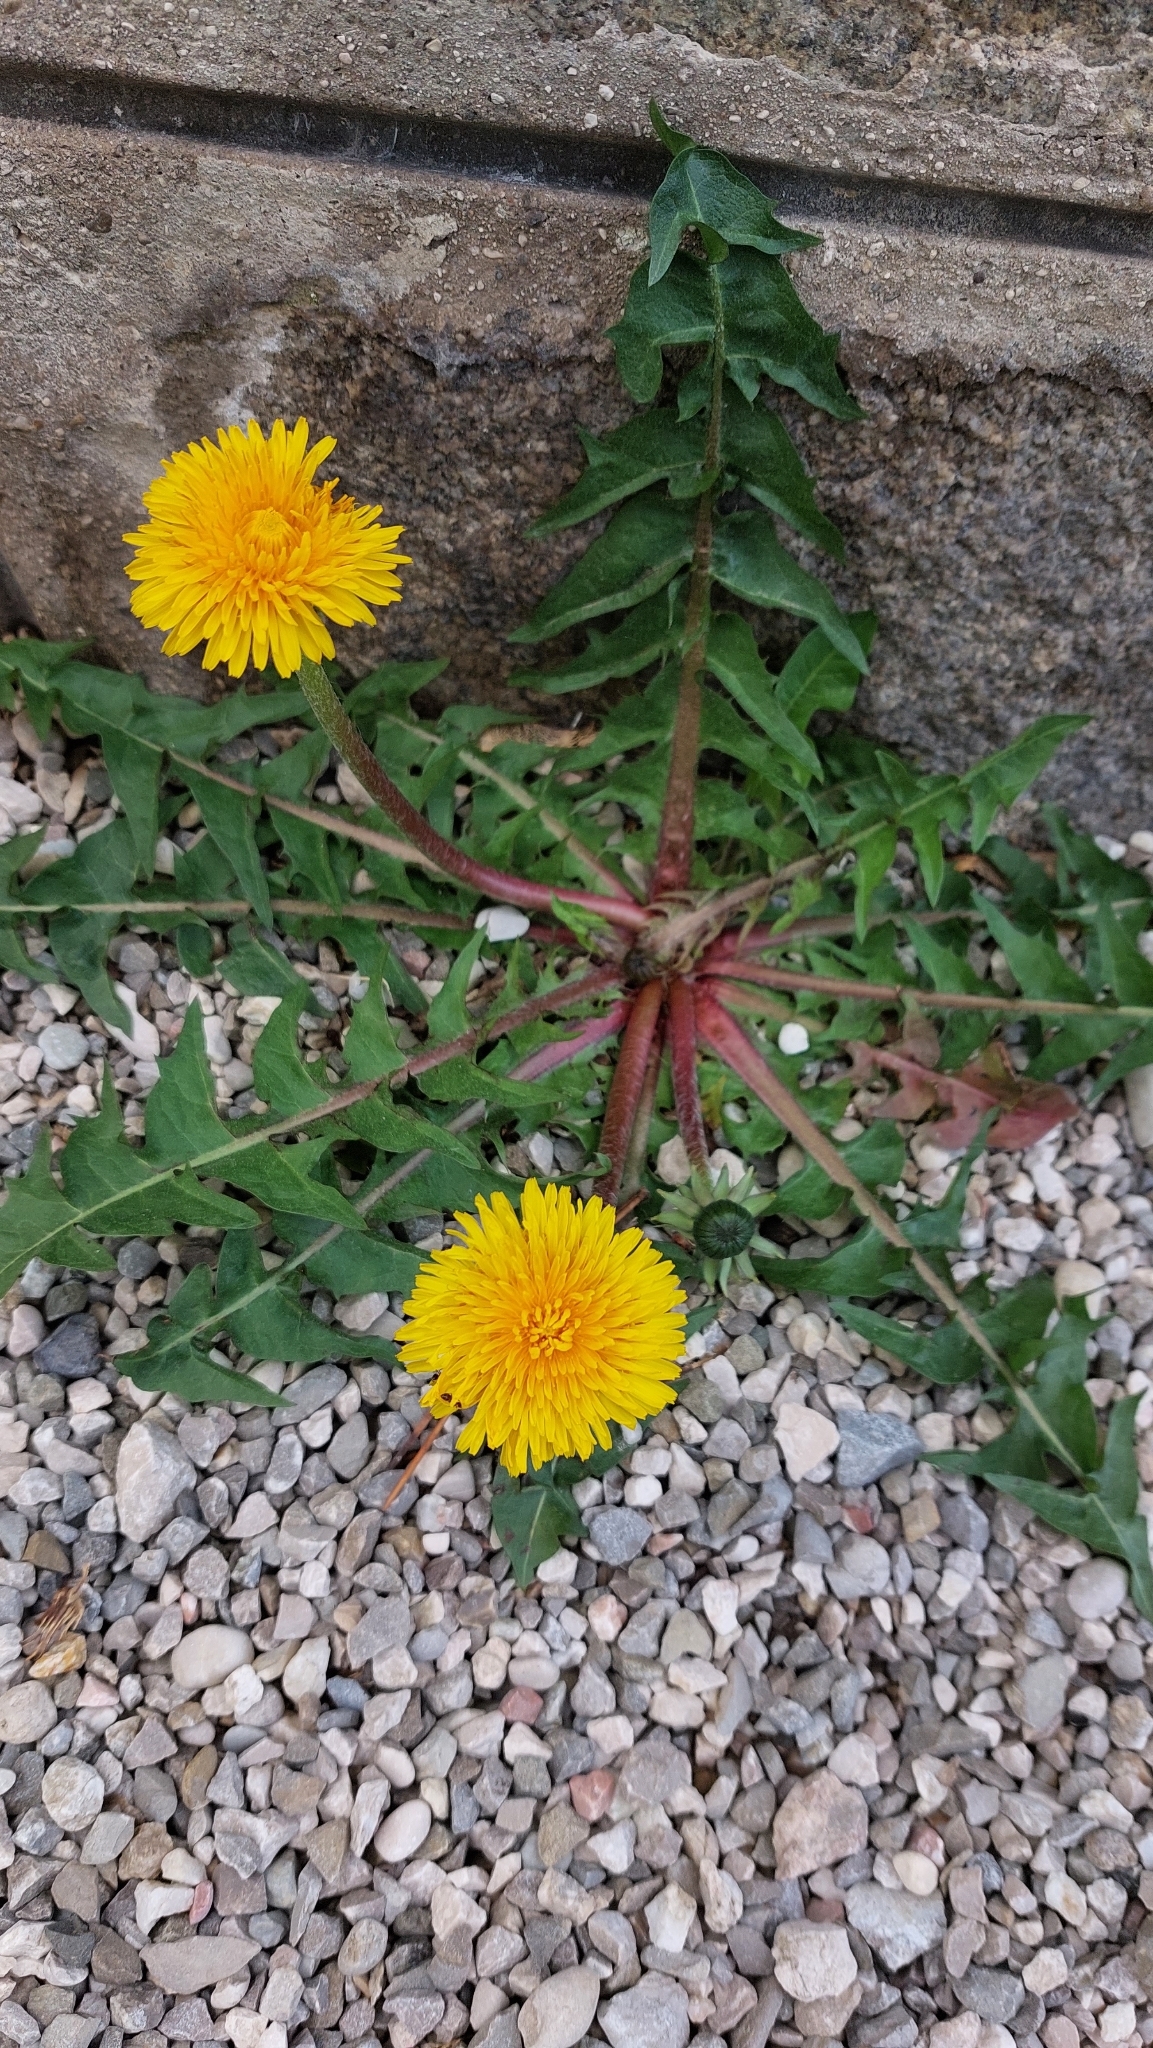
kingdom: Plantae
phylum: Tracheophyta
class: Magnoliopsida
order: Asterales
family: Asteraceae
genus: Taraxacum
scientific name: Taraxacum officinale
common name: Common dandelion
